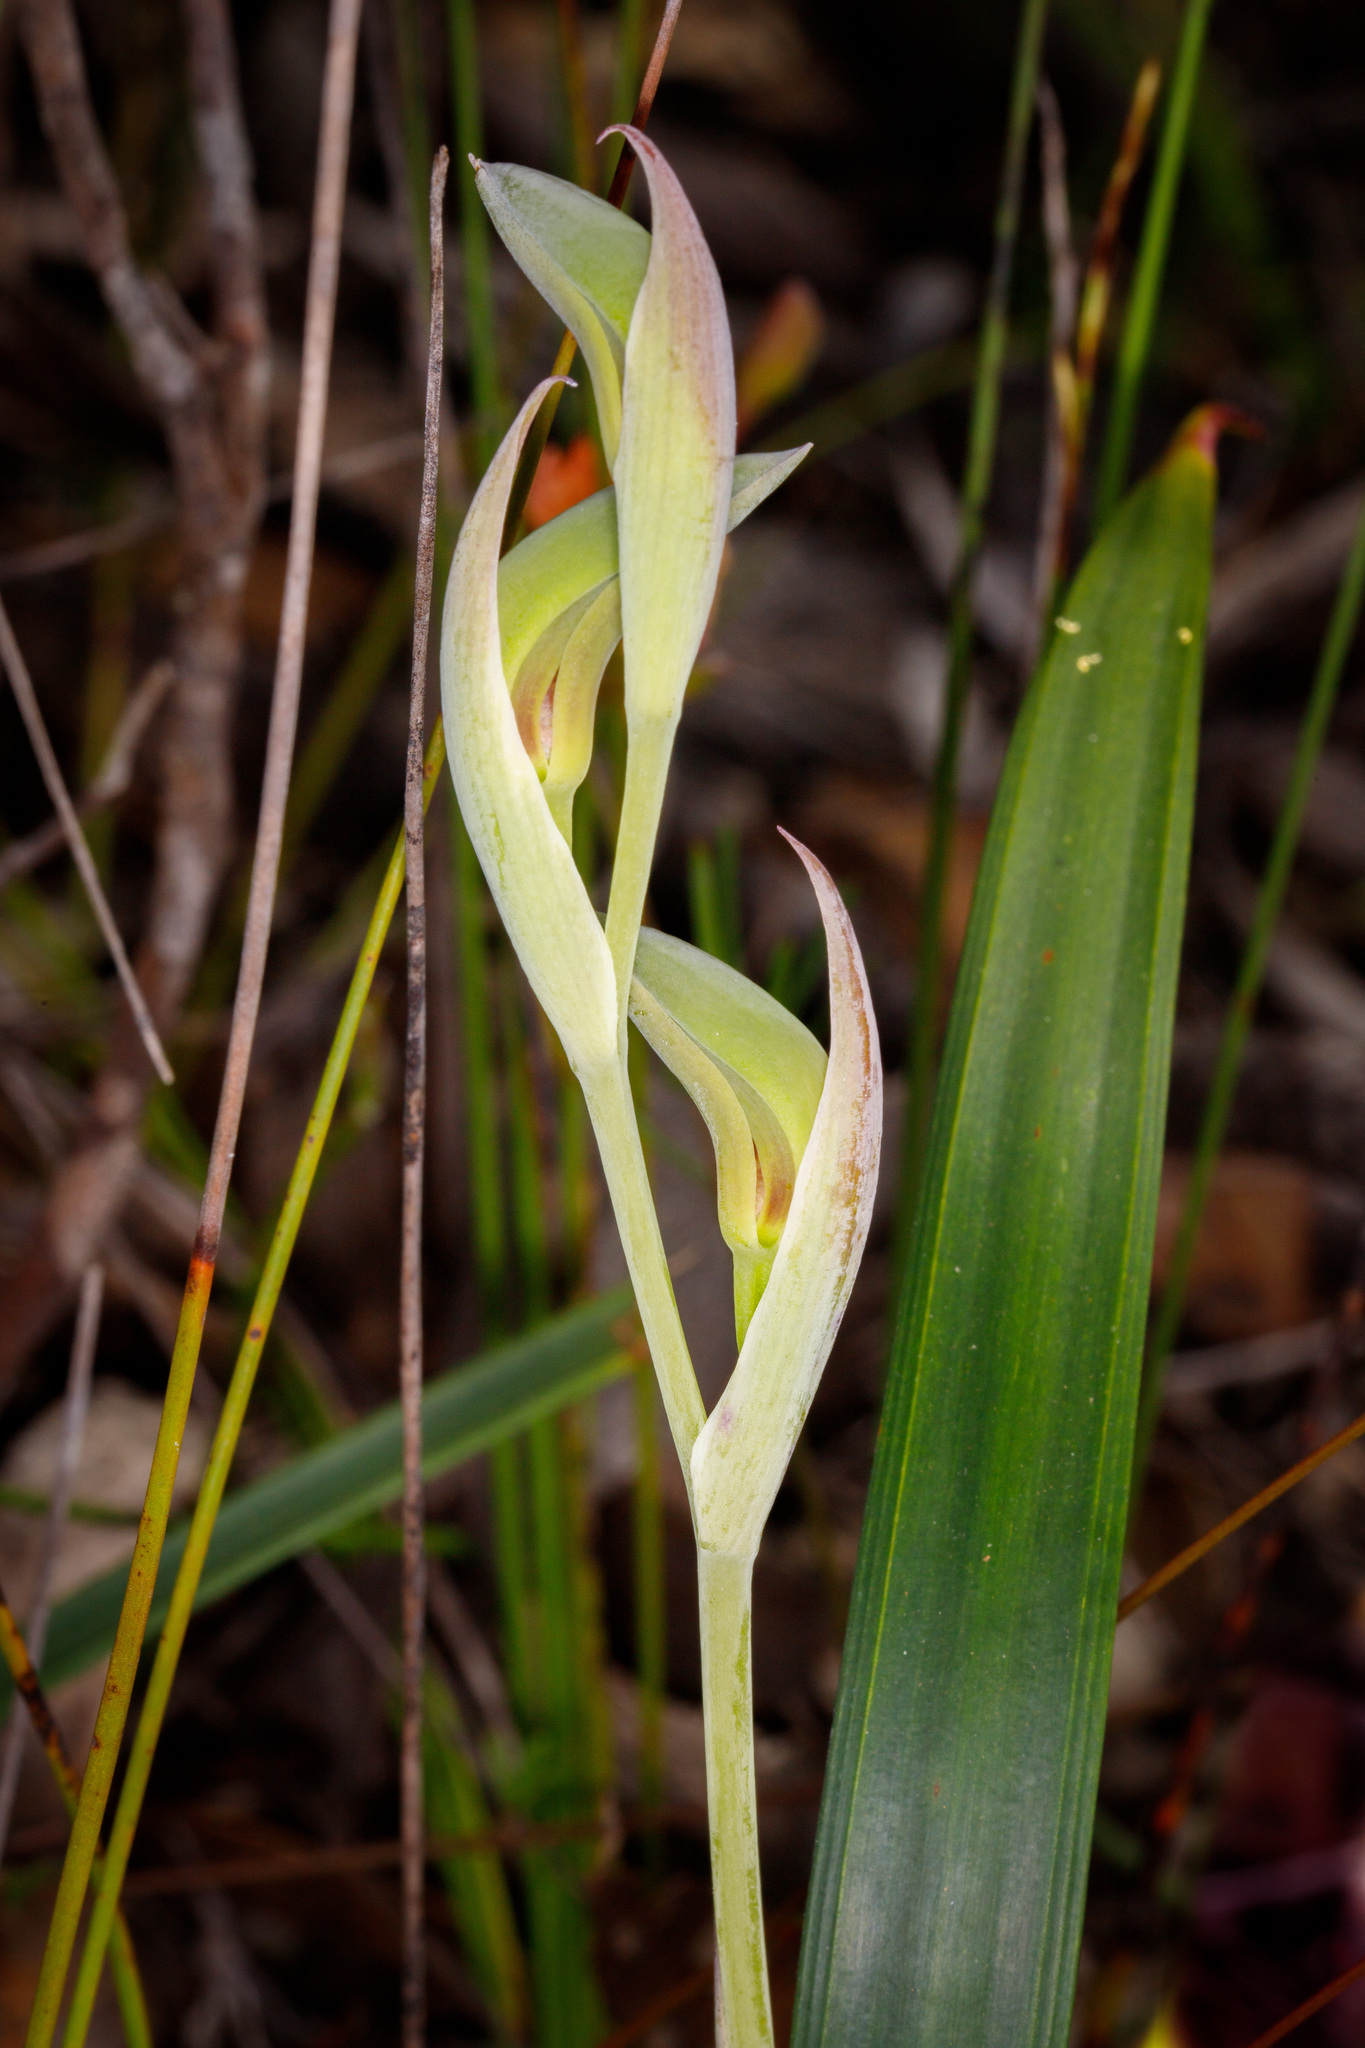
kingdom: Plantae
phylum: Tracheophyta
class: Liliopsida
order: Asparagales
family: Orchidaceae
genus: Lyperanthus
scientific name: Lyperanthus serratus
